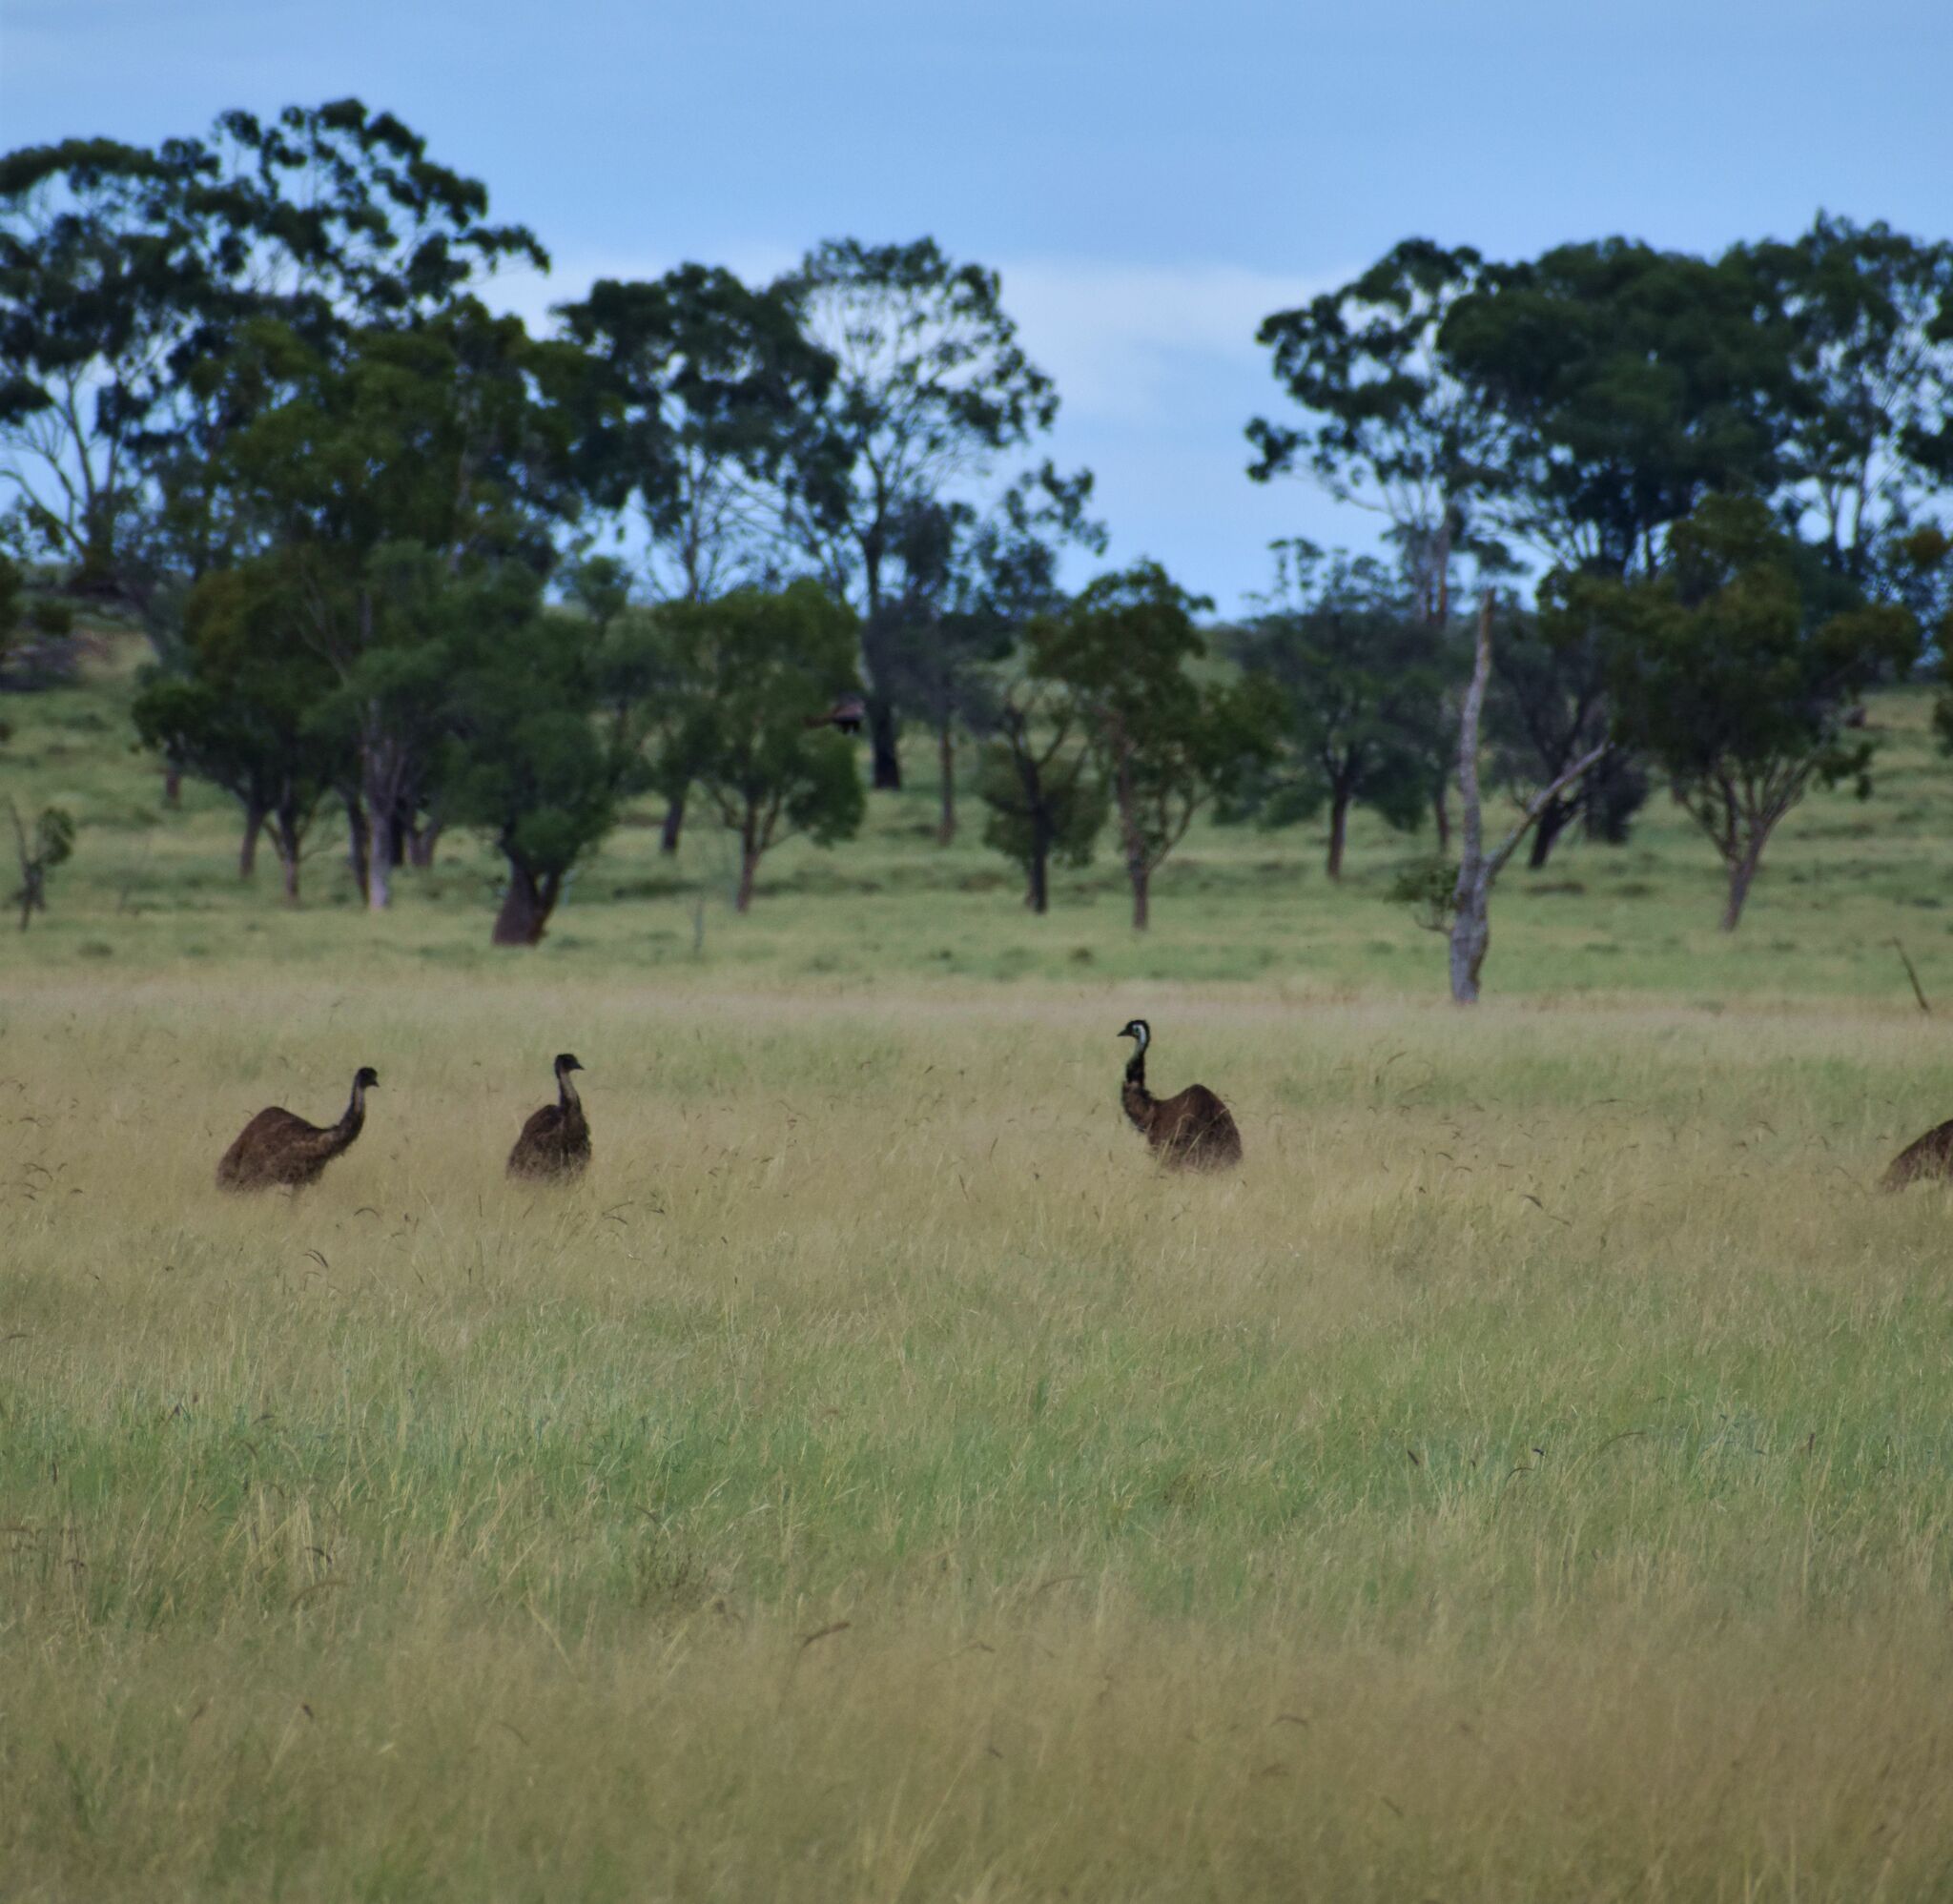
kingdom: Animalia
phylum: Chordata
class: Aves
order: Casuariiformes
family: Dromaiidae
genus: Dromaius
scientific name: Dromaius novaehollandiae
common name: Emu
